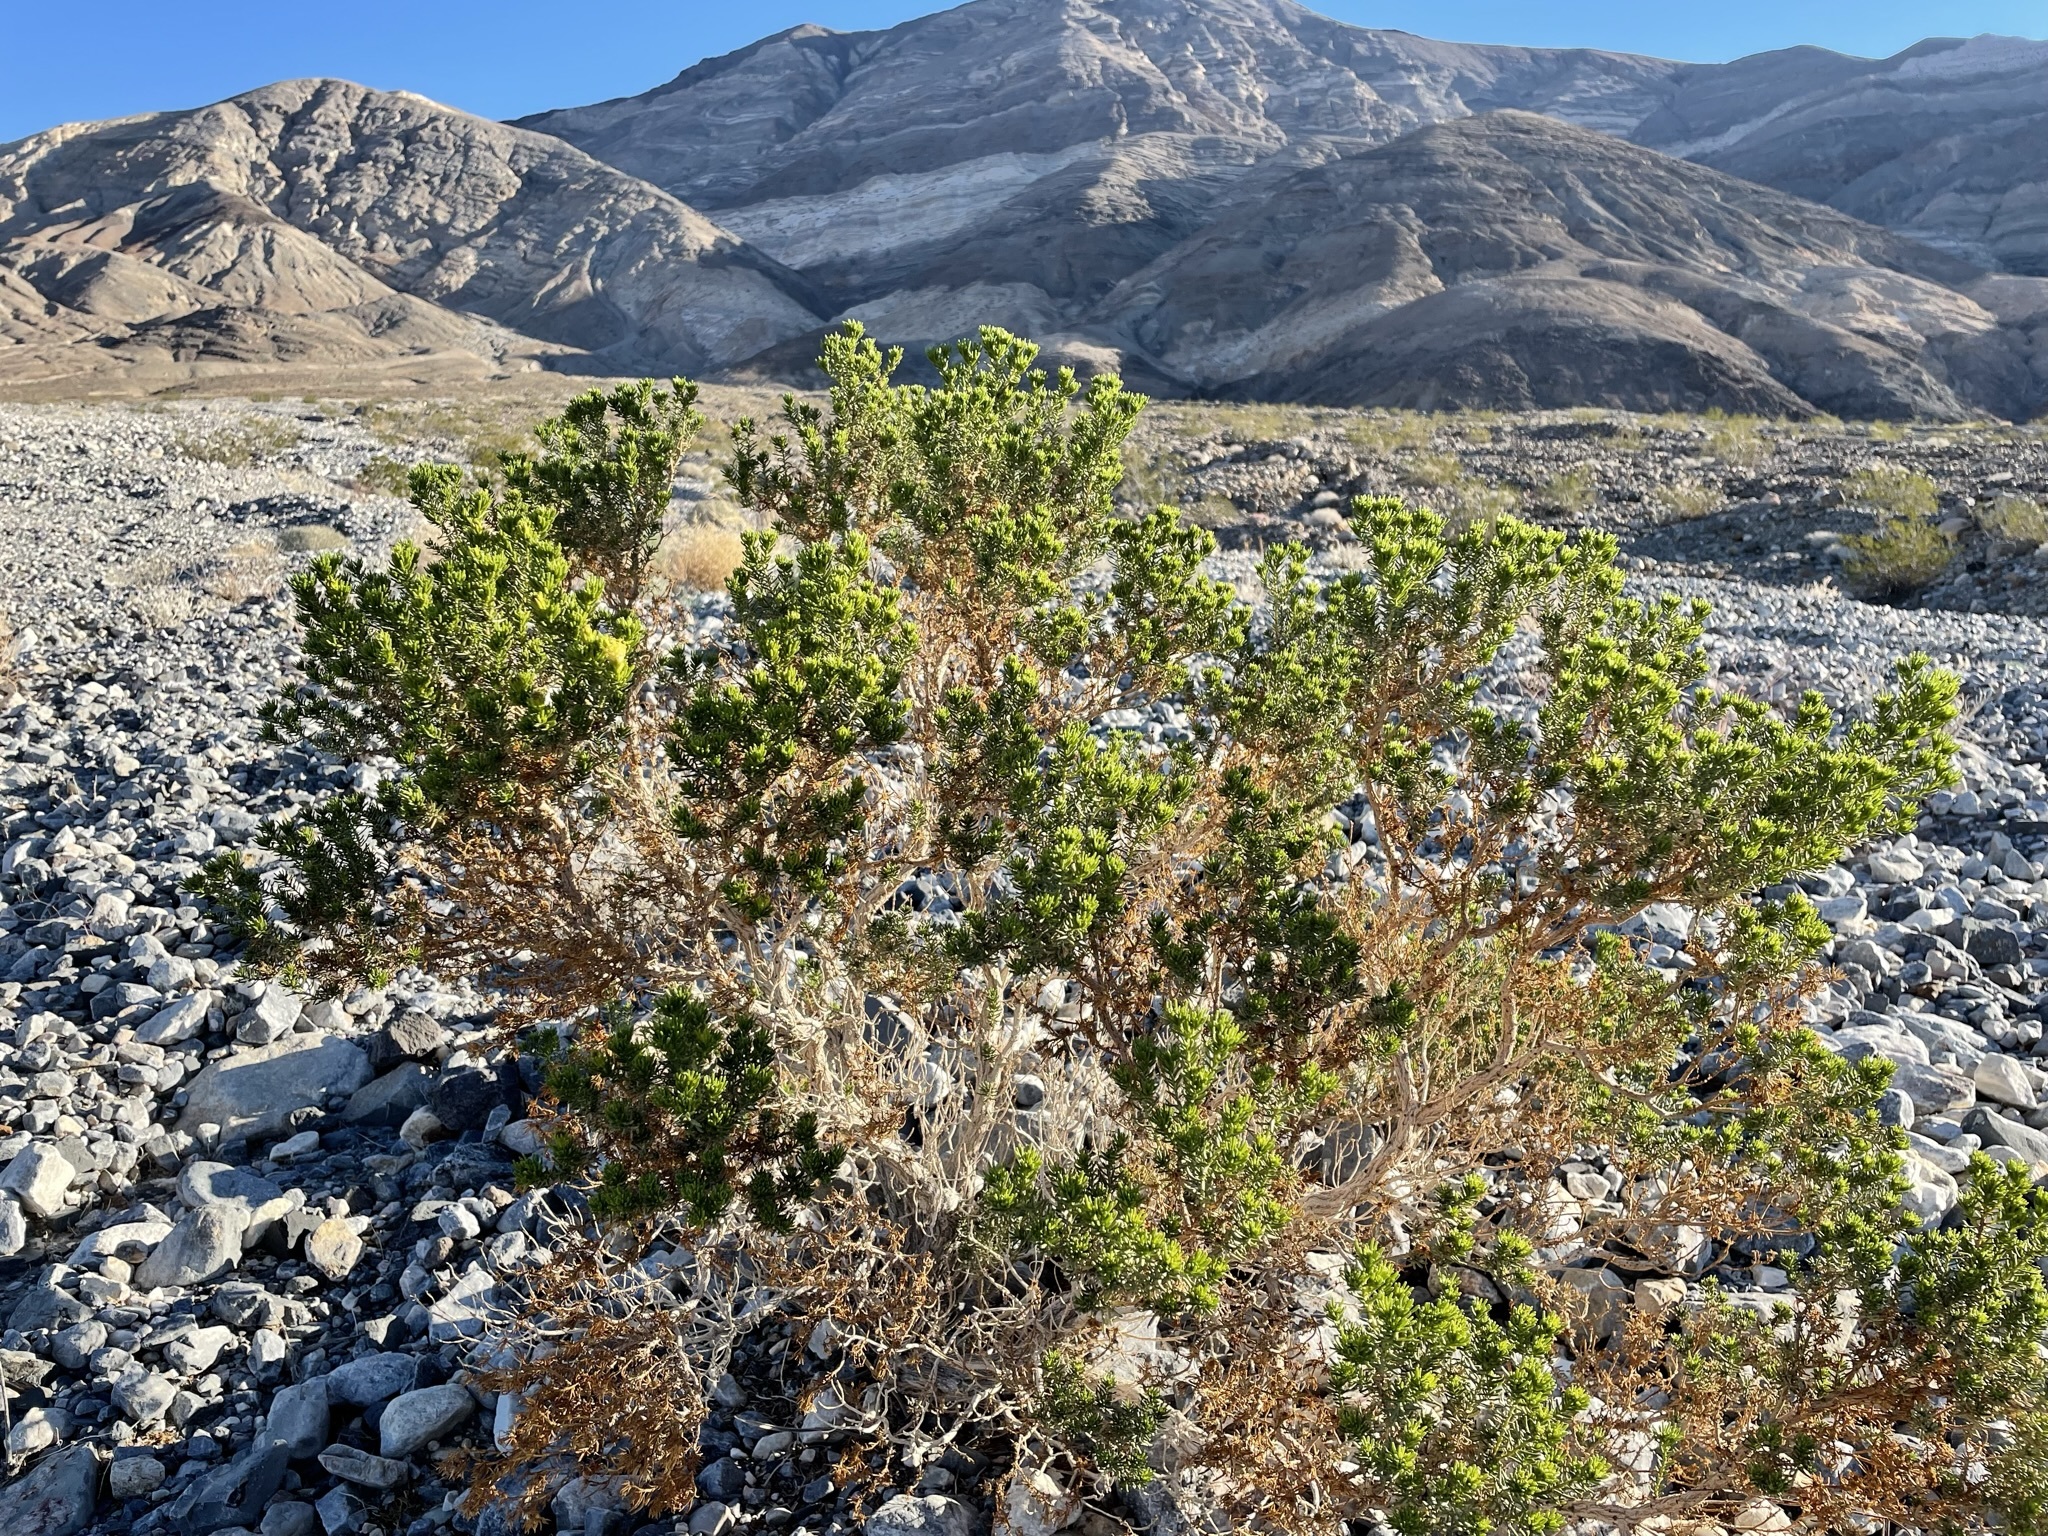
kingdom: Plantae
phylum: Tracheophyta
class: Magnoliopsida
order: Asterales
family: Asteraceae
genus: Peucephyllum
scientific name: Peucephyllum schottii
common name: Pygmy-cedar
